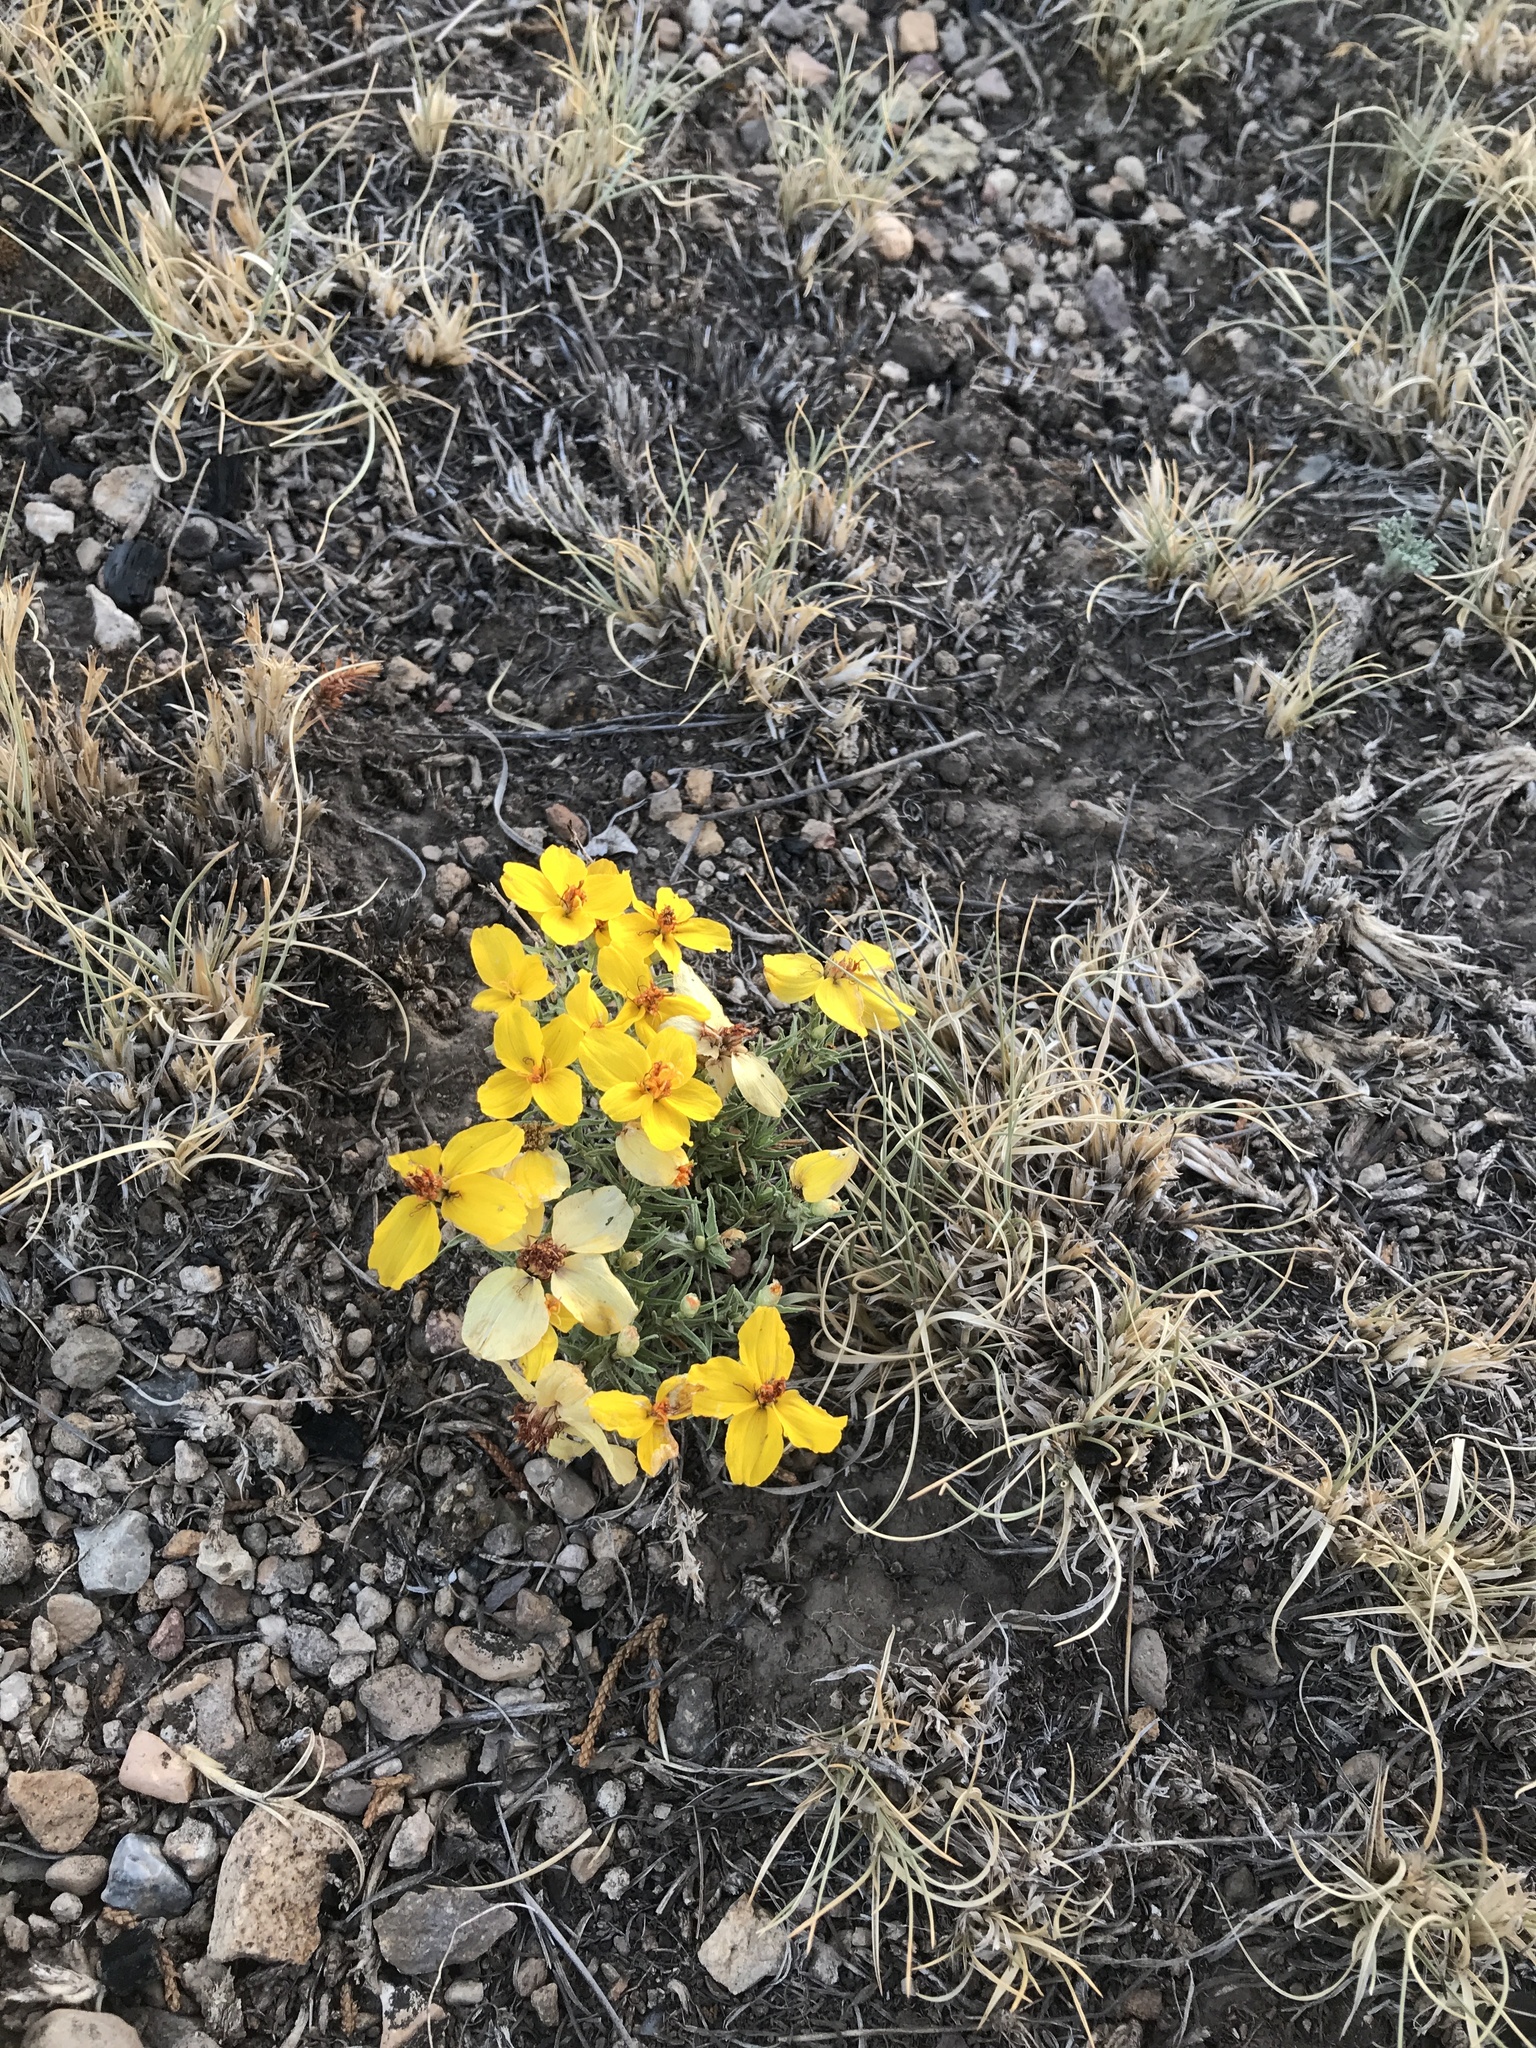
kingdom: Plantae
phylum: Tracheophyta
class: Magnoliopsida
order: Asterales
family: Asteraceae
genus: Zinnia
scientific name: Zinnia grandiflora
